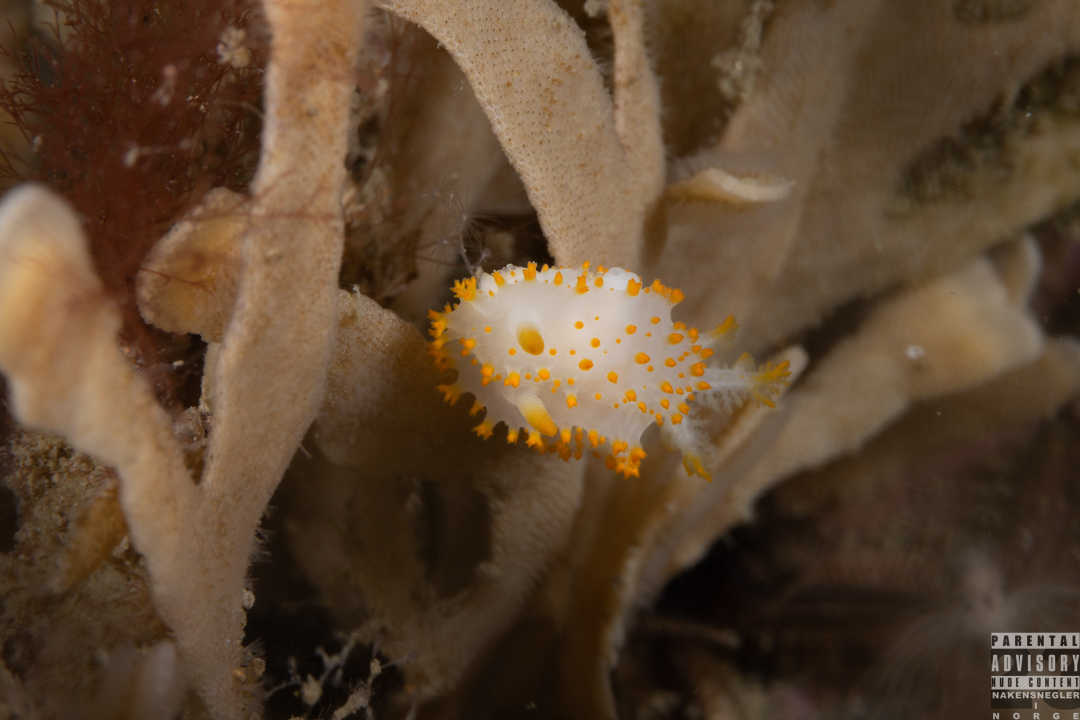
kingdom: Animalia
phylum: Mollusca
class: Gastropoda
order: Nudibranchia
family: Polyceridae
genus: Crimora
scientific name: Crimora papillata
